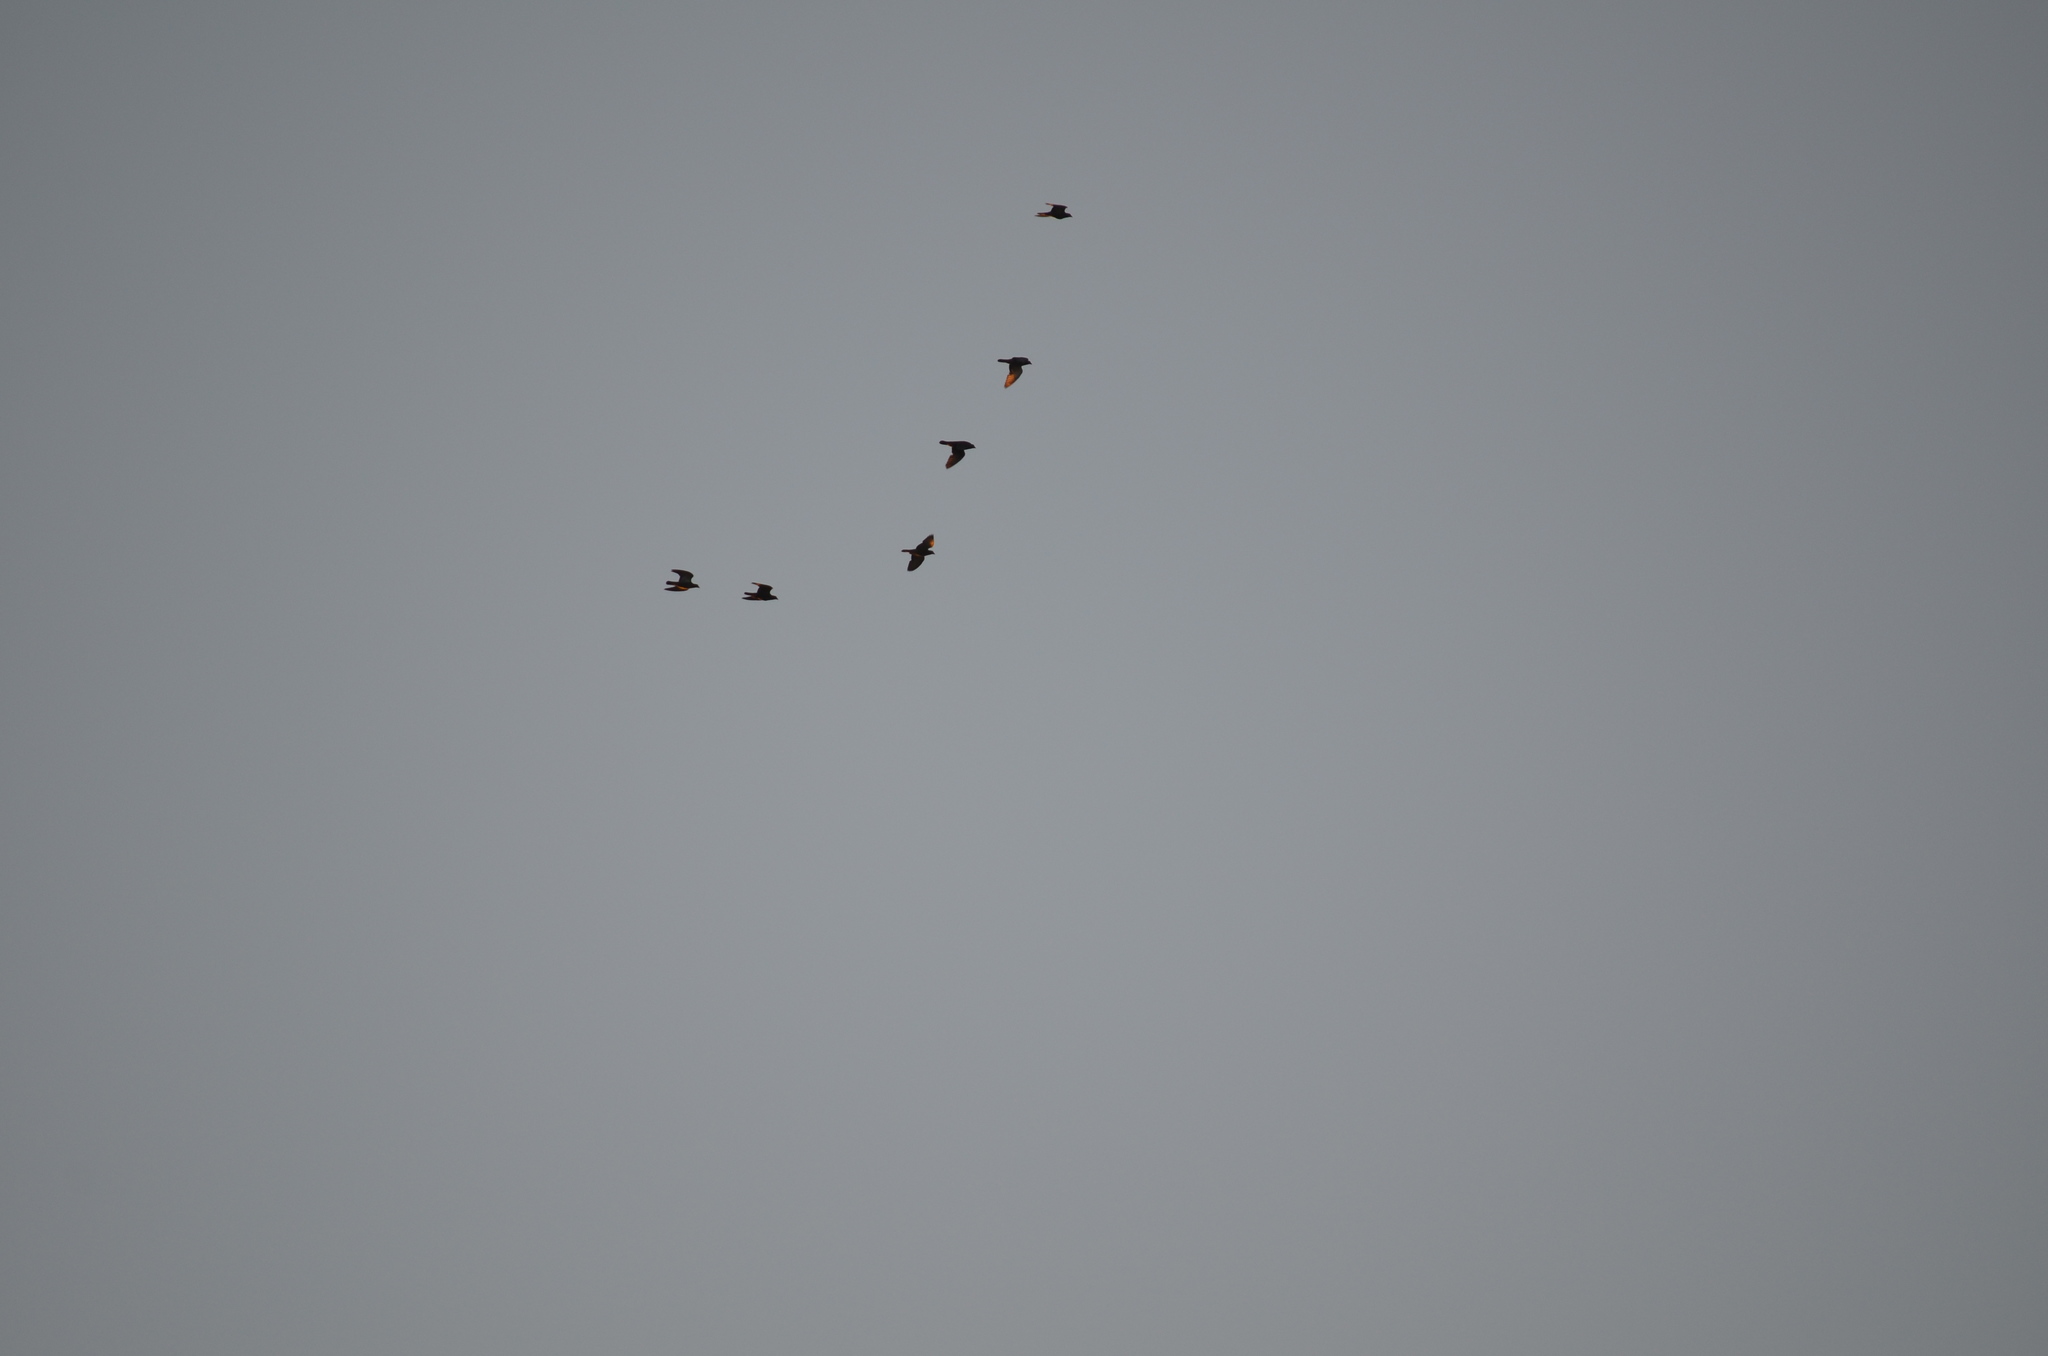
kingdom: Animalia
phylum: Chordata
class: Aves
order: Columbiformes
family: Columbidae
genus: Columba
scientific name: Columba livia
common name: Rock pigeon
